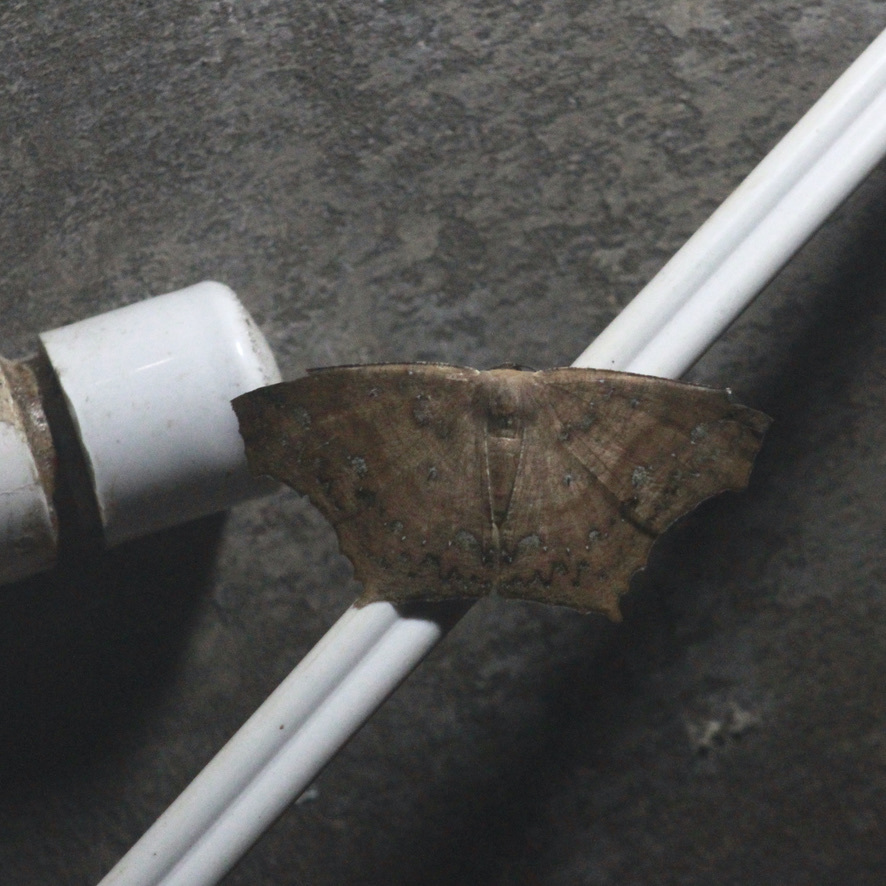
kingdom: Animalia
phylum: Arthropoda
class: Insecta
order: Lepidoptera
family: Geometridae
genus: Paragonia
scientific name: Paragonia cruraria
